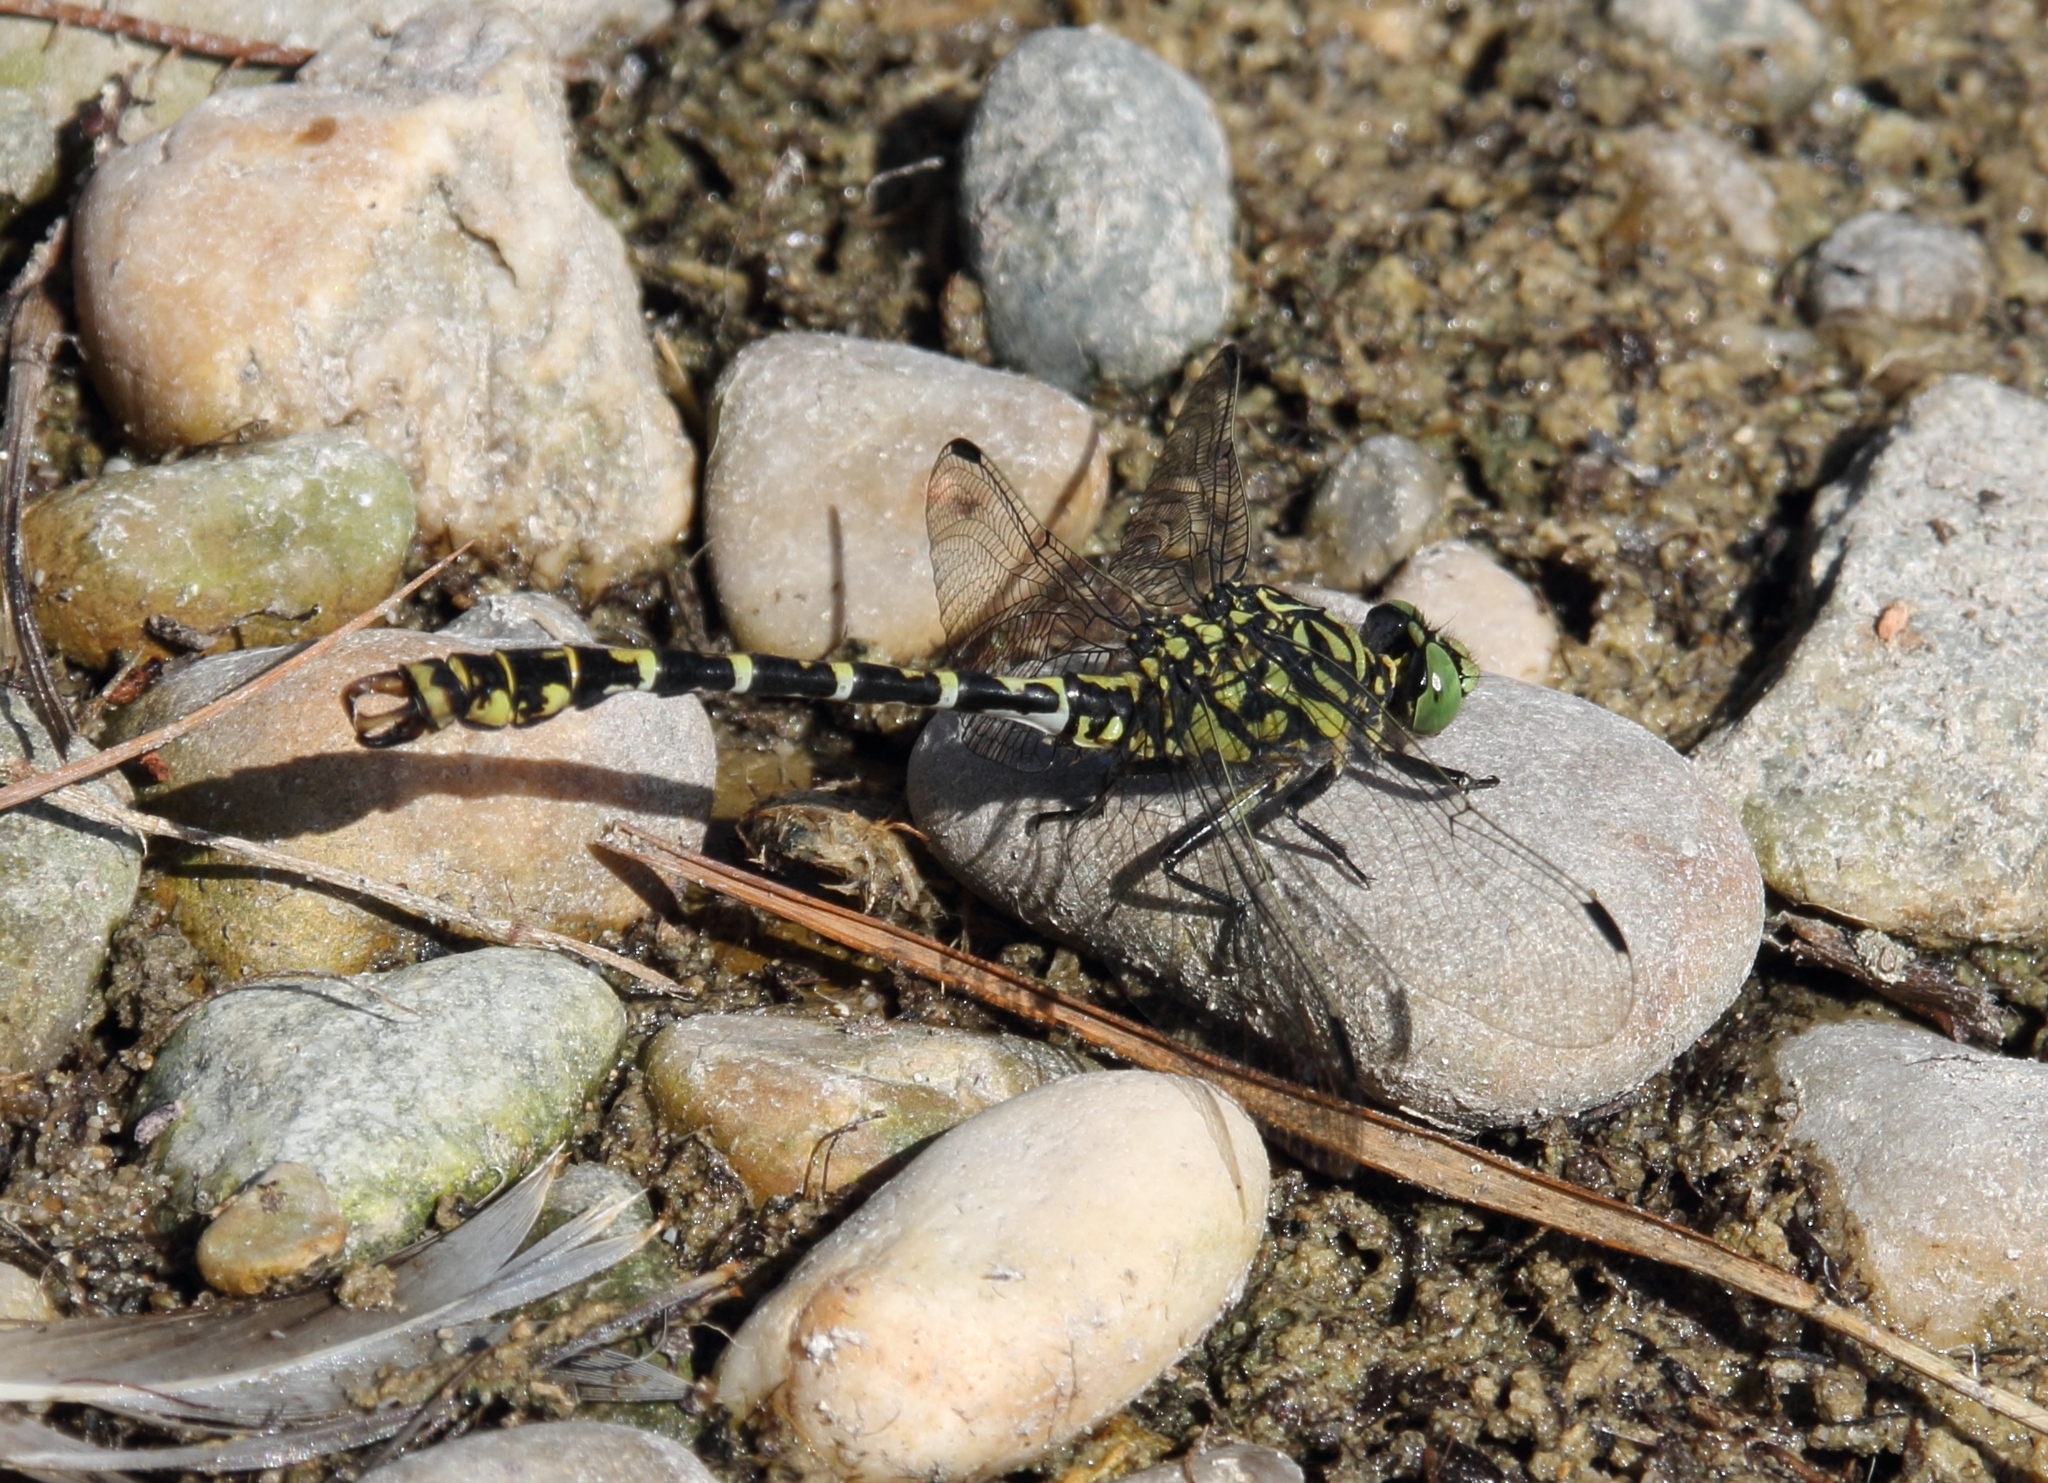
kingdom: Animalia
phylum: Arthropoda
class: Insecta
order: Odonata
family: Gomphidae
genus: Onychogomphus
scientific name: Onychogomphus forcipatus
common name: Small pincertail
